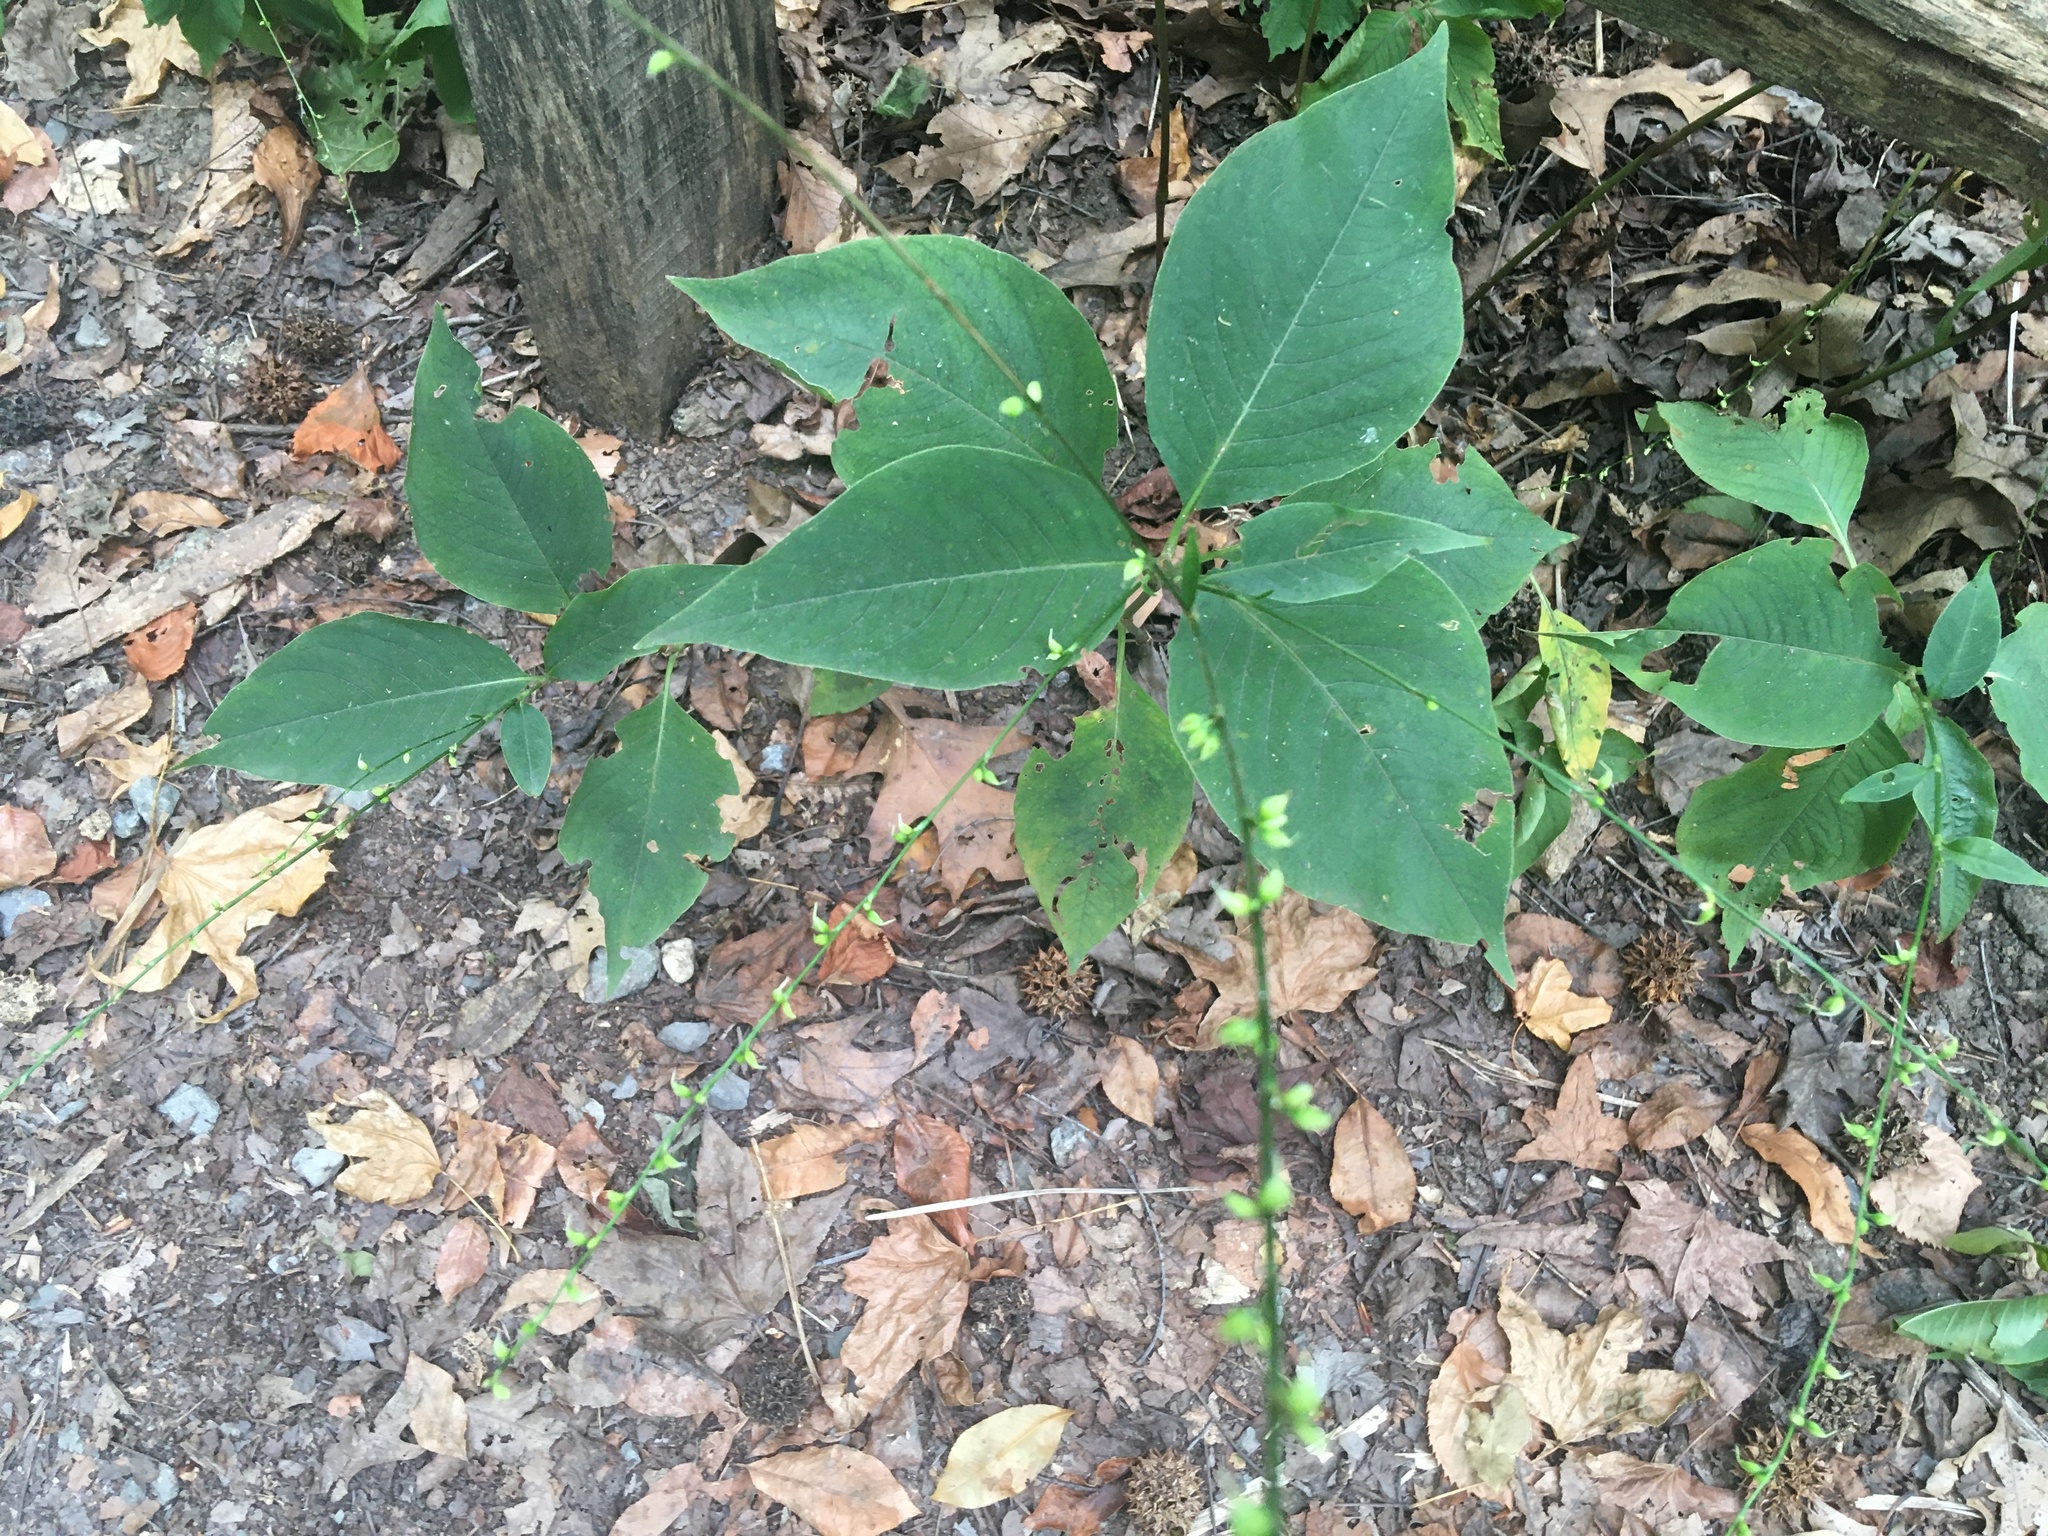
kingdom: Plantae
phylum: Tracheophyta
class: Magnoliopsida
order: Caryophyllales
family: Polygonaceae
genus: Persicaria
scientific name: Persicaria virginiana
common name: Jumpseed
